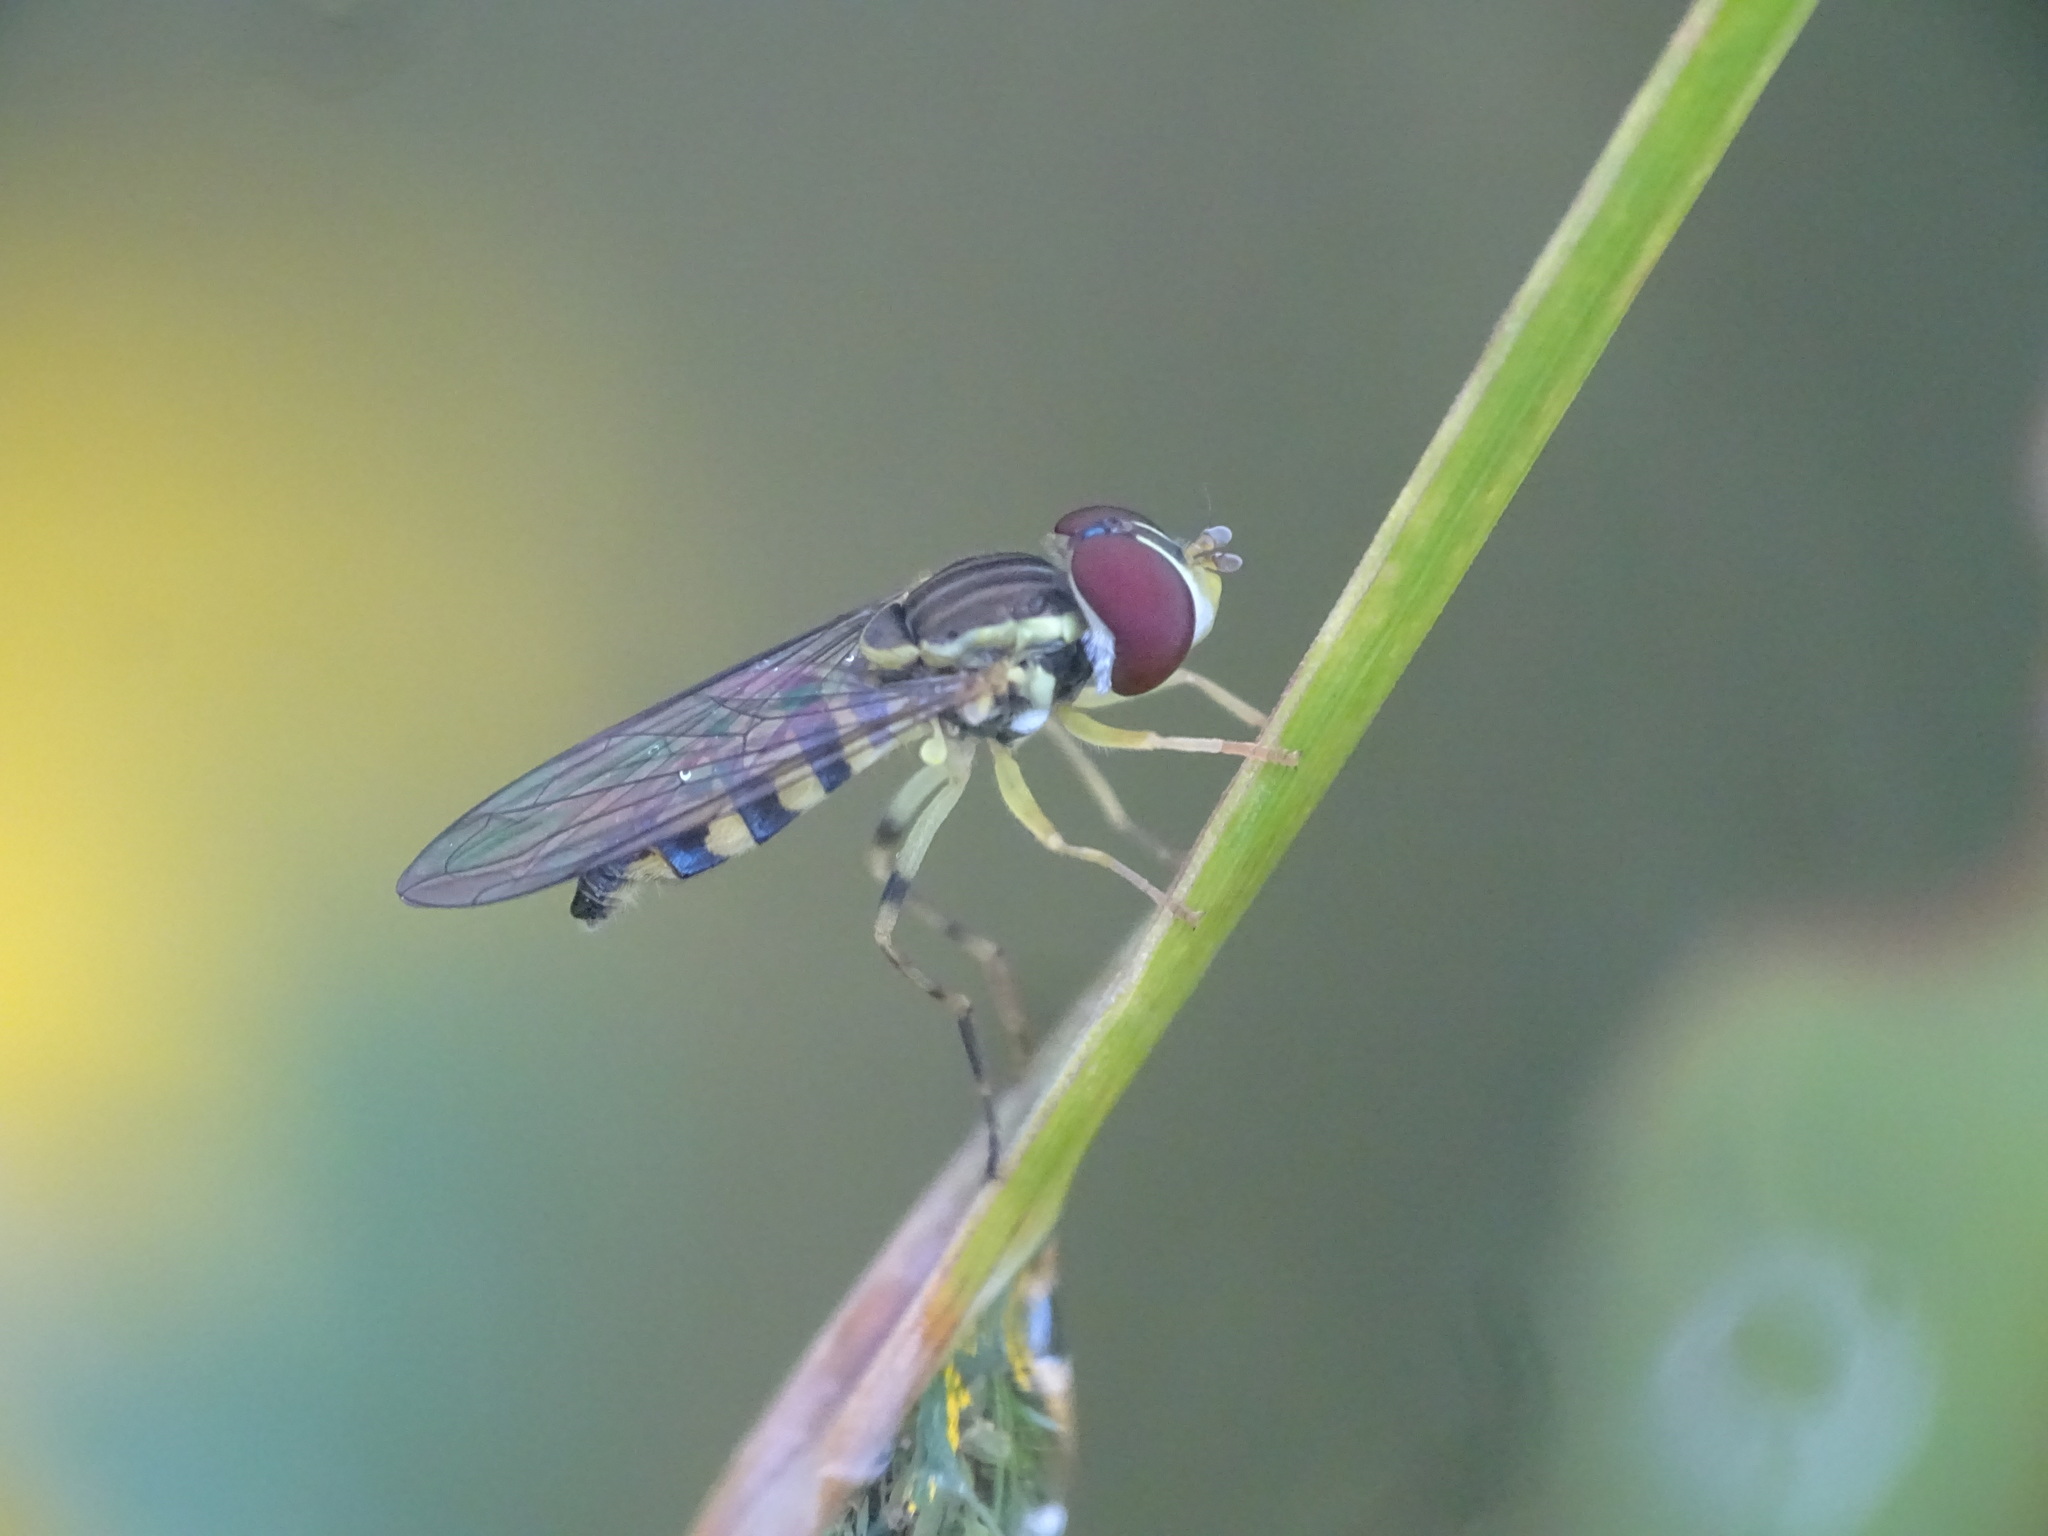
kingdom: Animalia
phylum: Arthropoda
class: Insecta
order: Diptera
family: Syrphidae
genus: Toxomerus
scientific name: Toxomerus geminatus
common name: Eastern calligrapher
